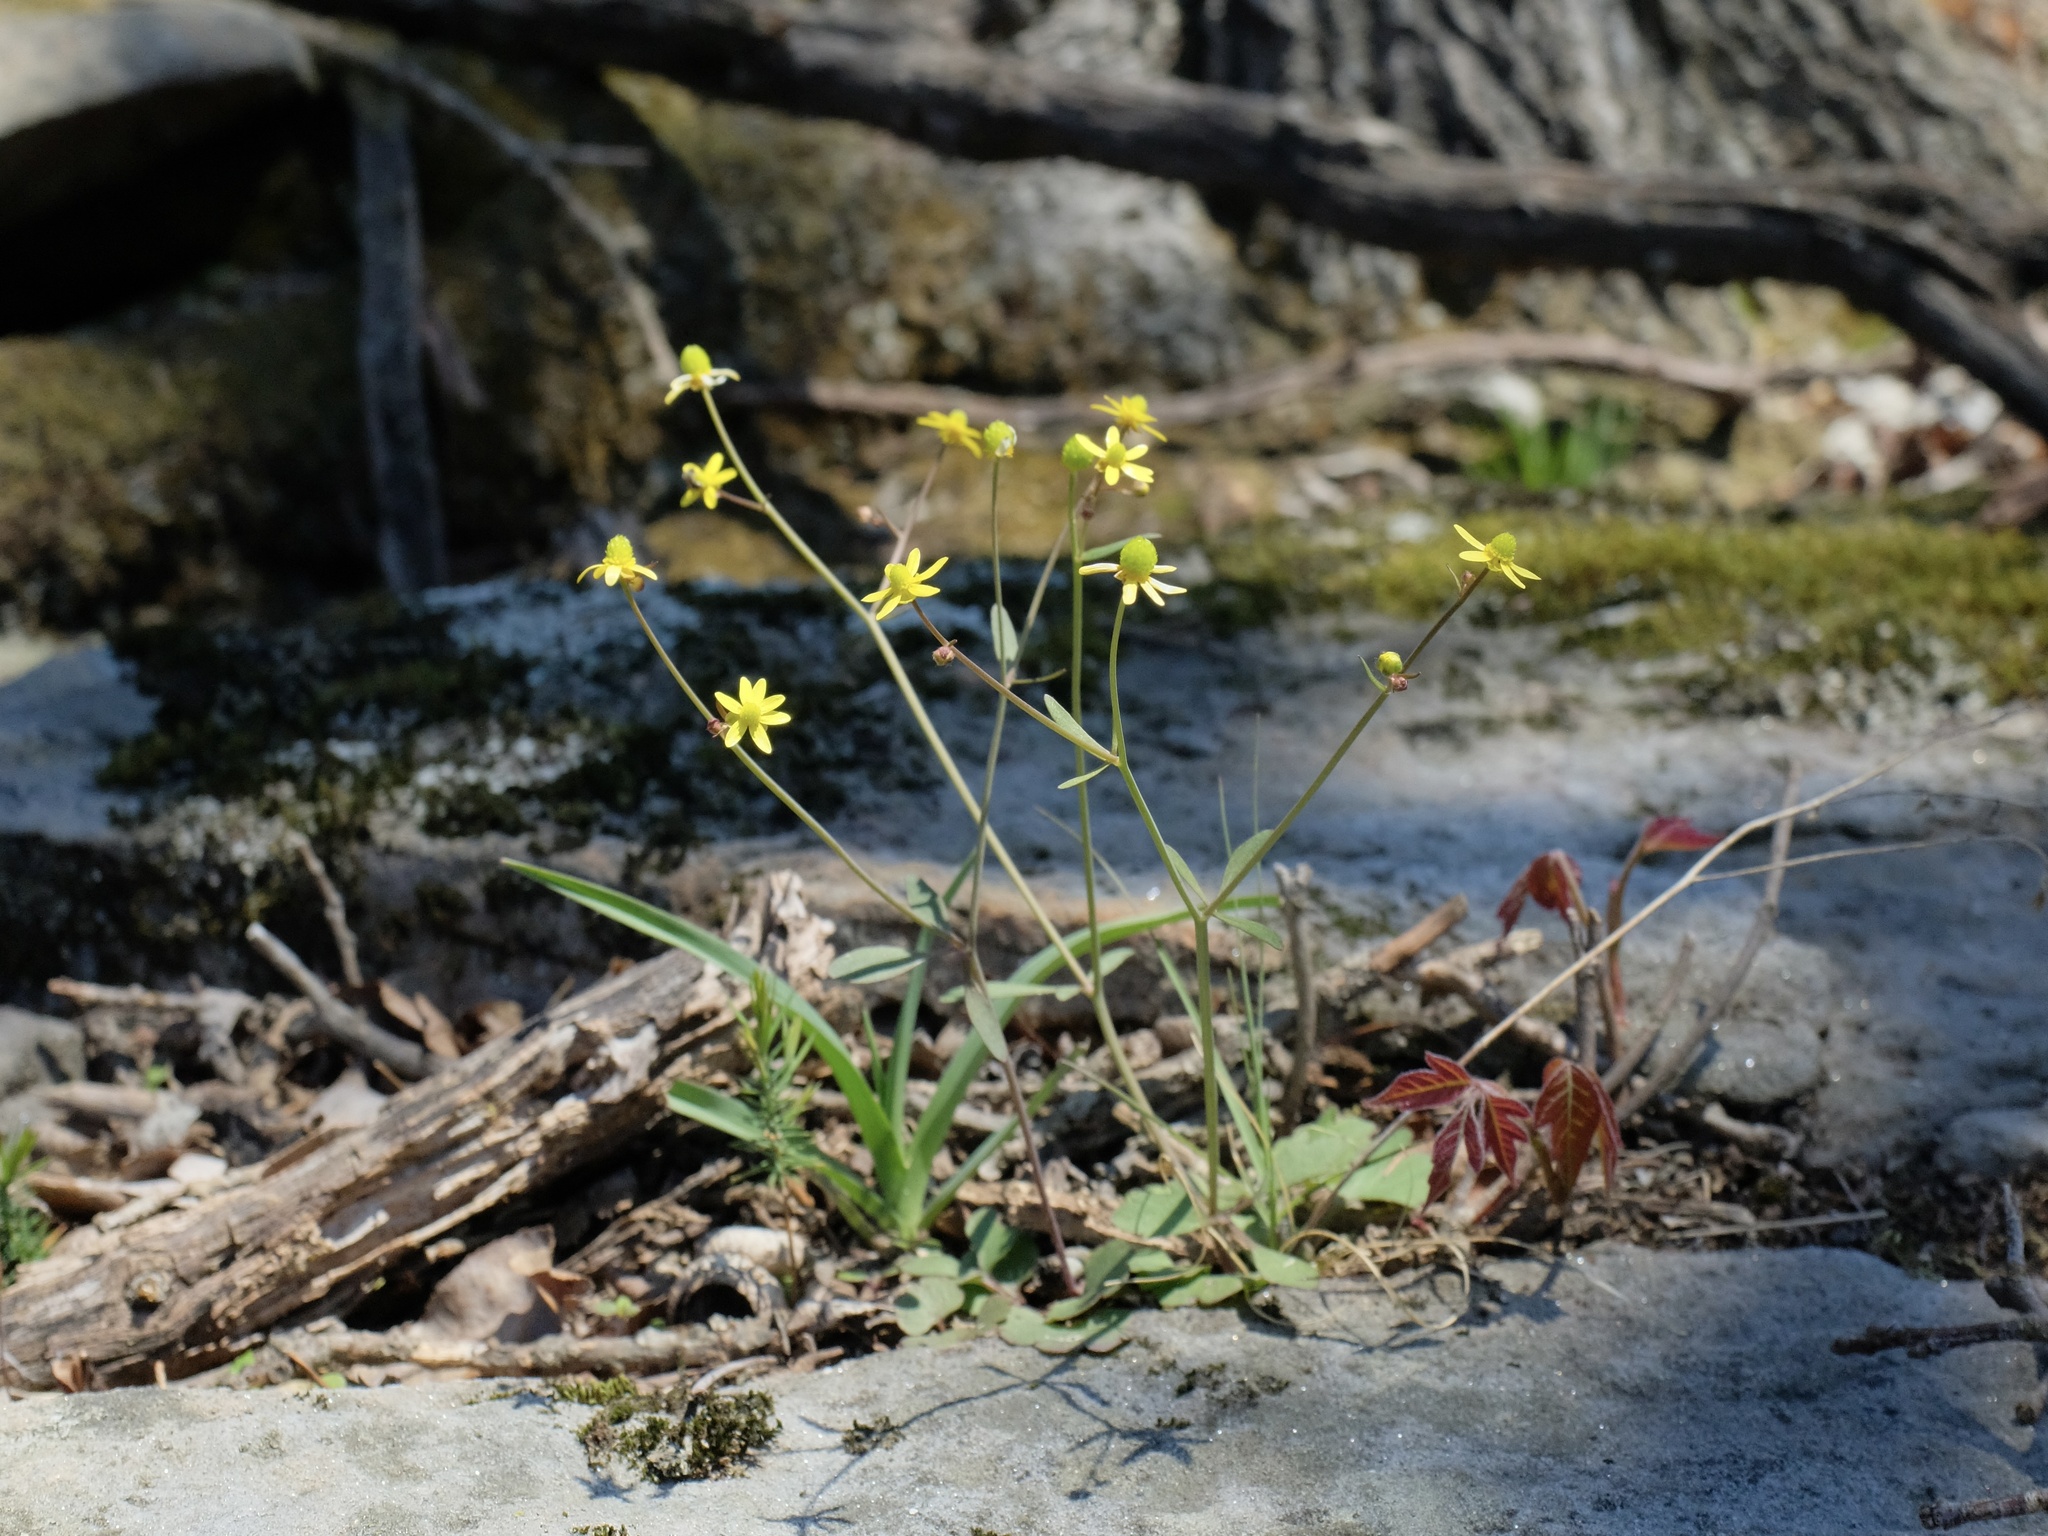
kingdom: Plantae
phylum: Tracheophyta
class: Magnoliopsida
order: Ranunculales
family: Ranunculaceae
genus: Ranunculus
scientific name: Ranunculus harveyi
